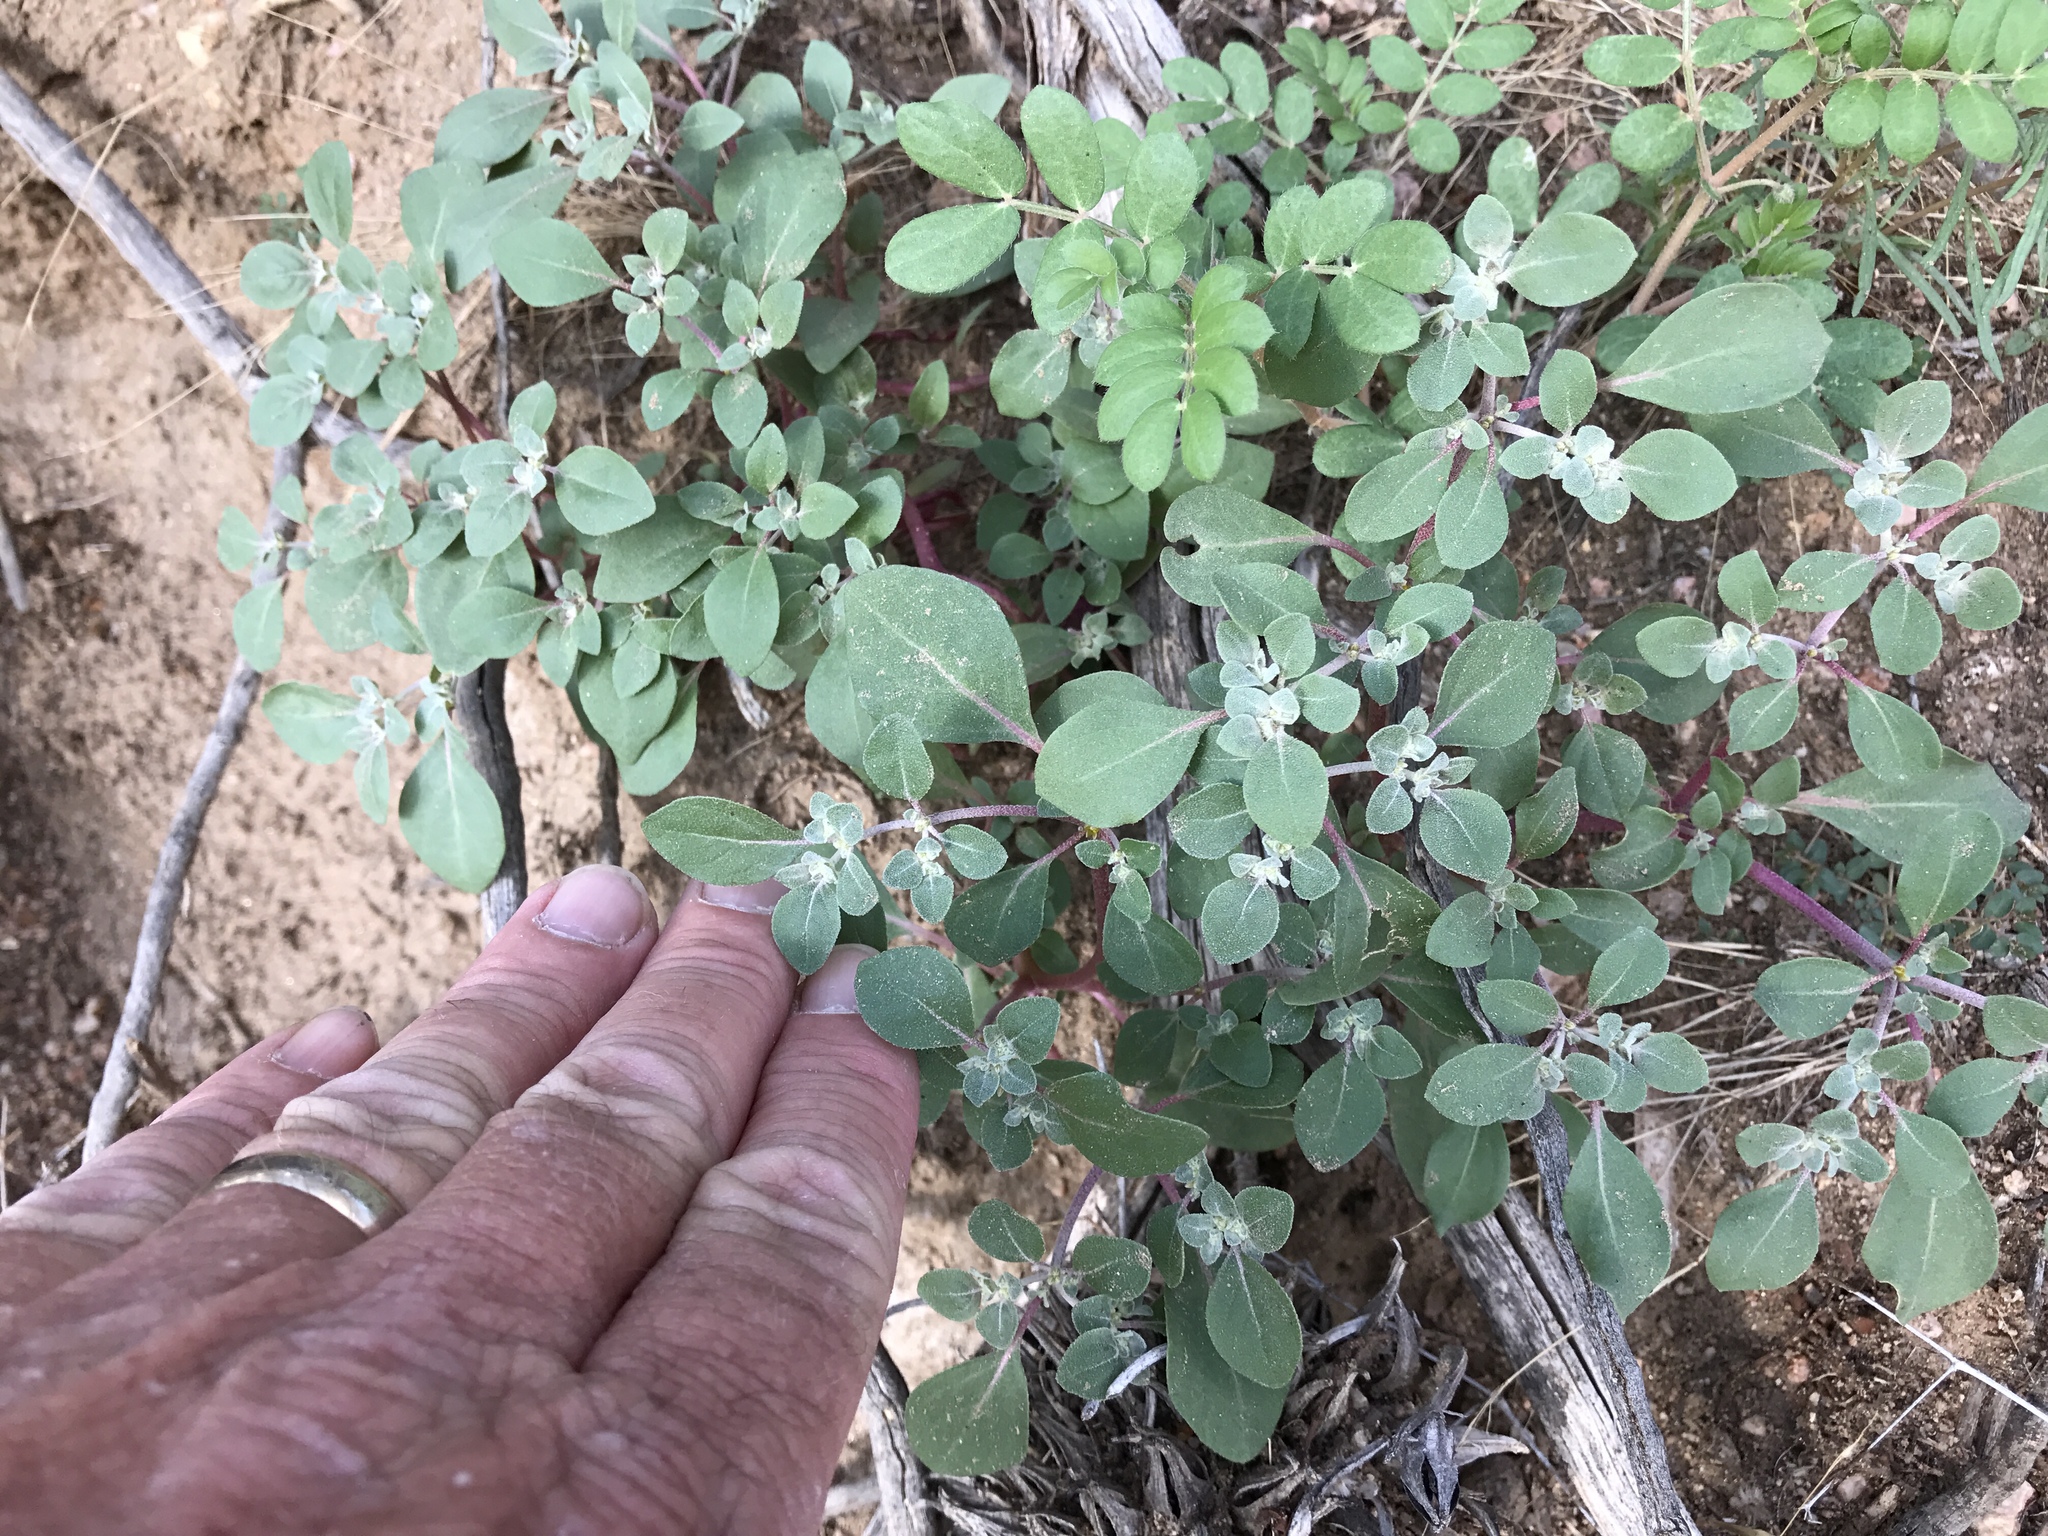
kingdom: Plantae
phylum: Tracheophyta
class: Magnoliopsida
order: Caryophyllales
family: Amaranthaceae
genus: Tidestromia
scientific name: Tidestromia lanuginosa
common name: Woolly tidestromia
